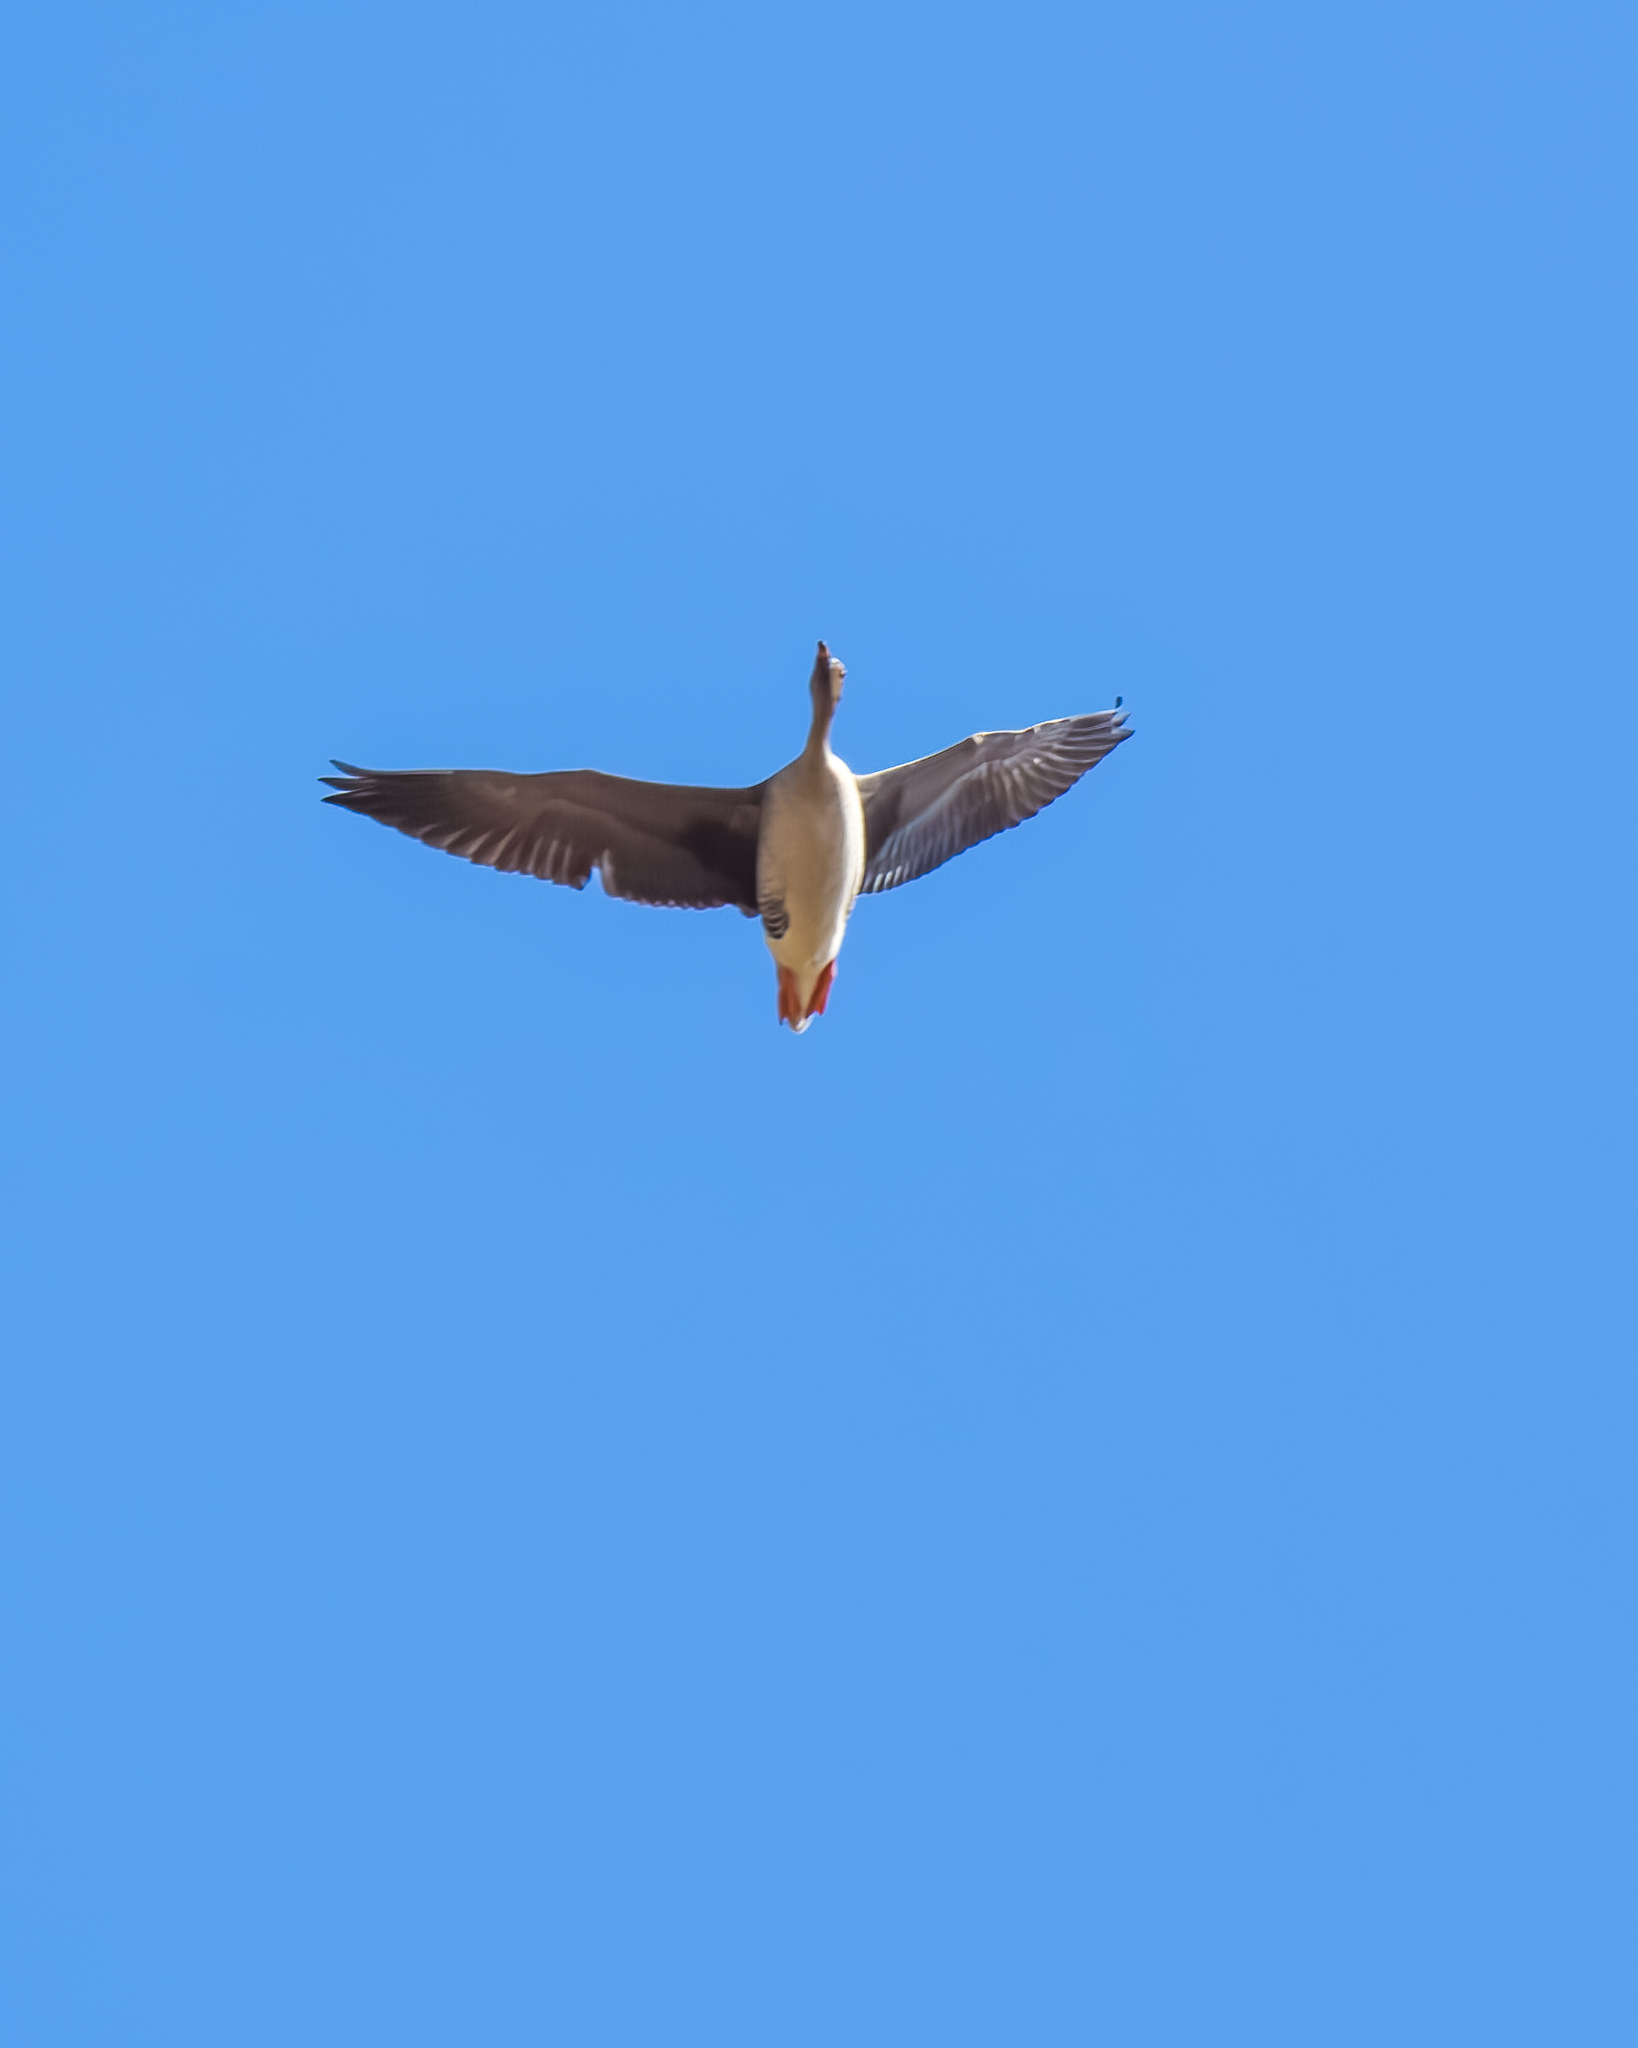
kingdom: Animalia
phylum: Chordata
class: Aves
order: Anseriformes
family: Anatidae
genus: Anser
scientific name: Anser fabalis
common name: Bean goose
